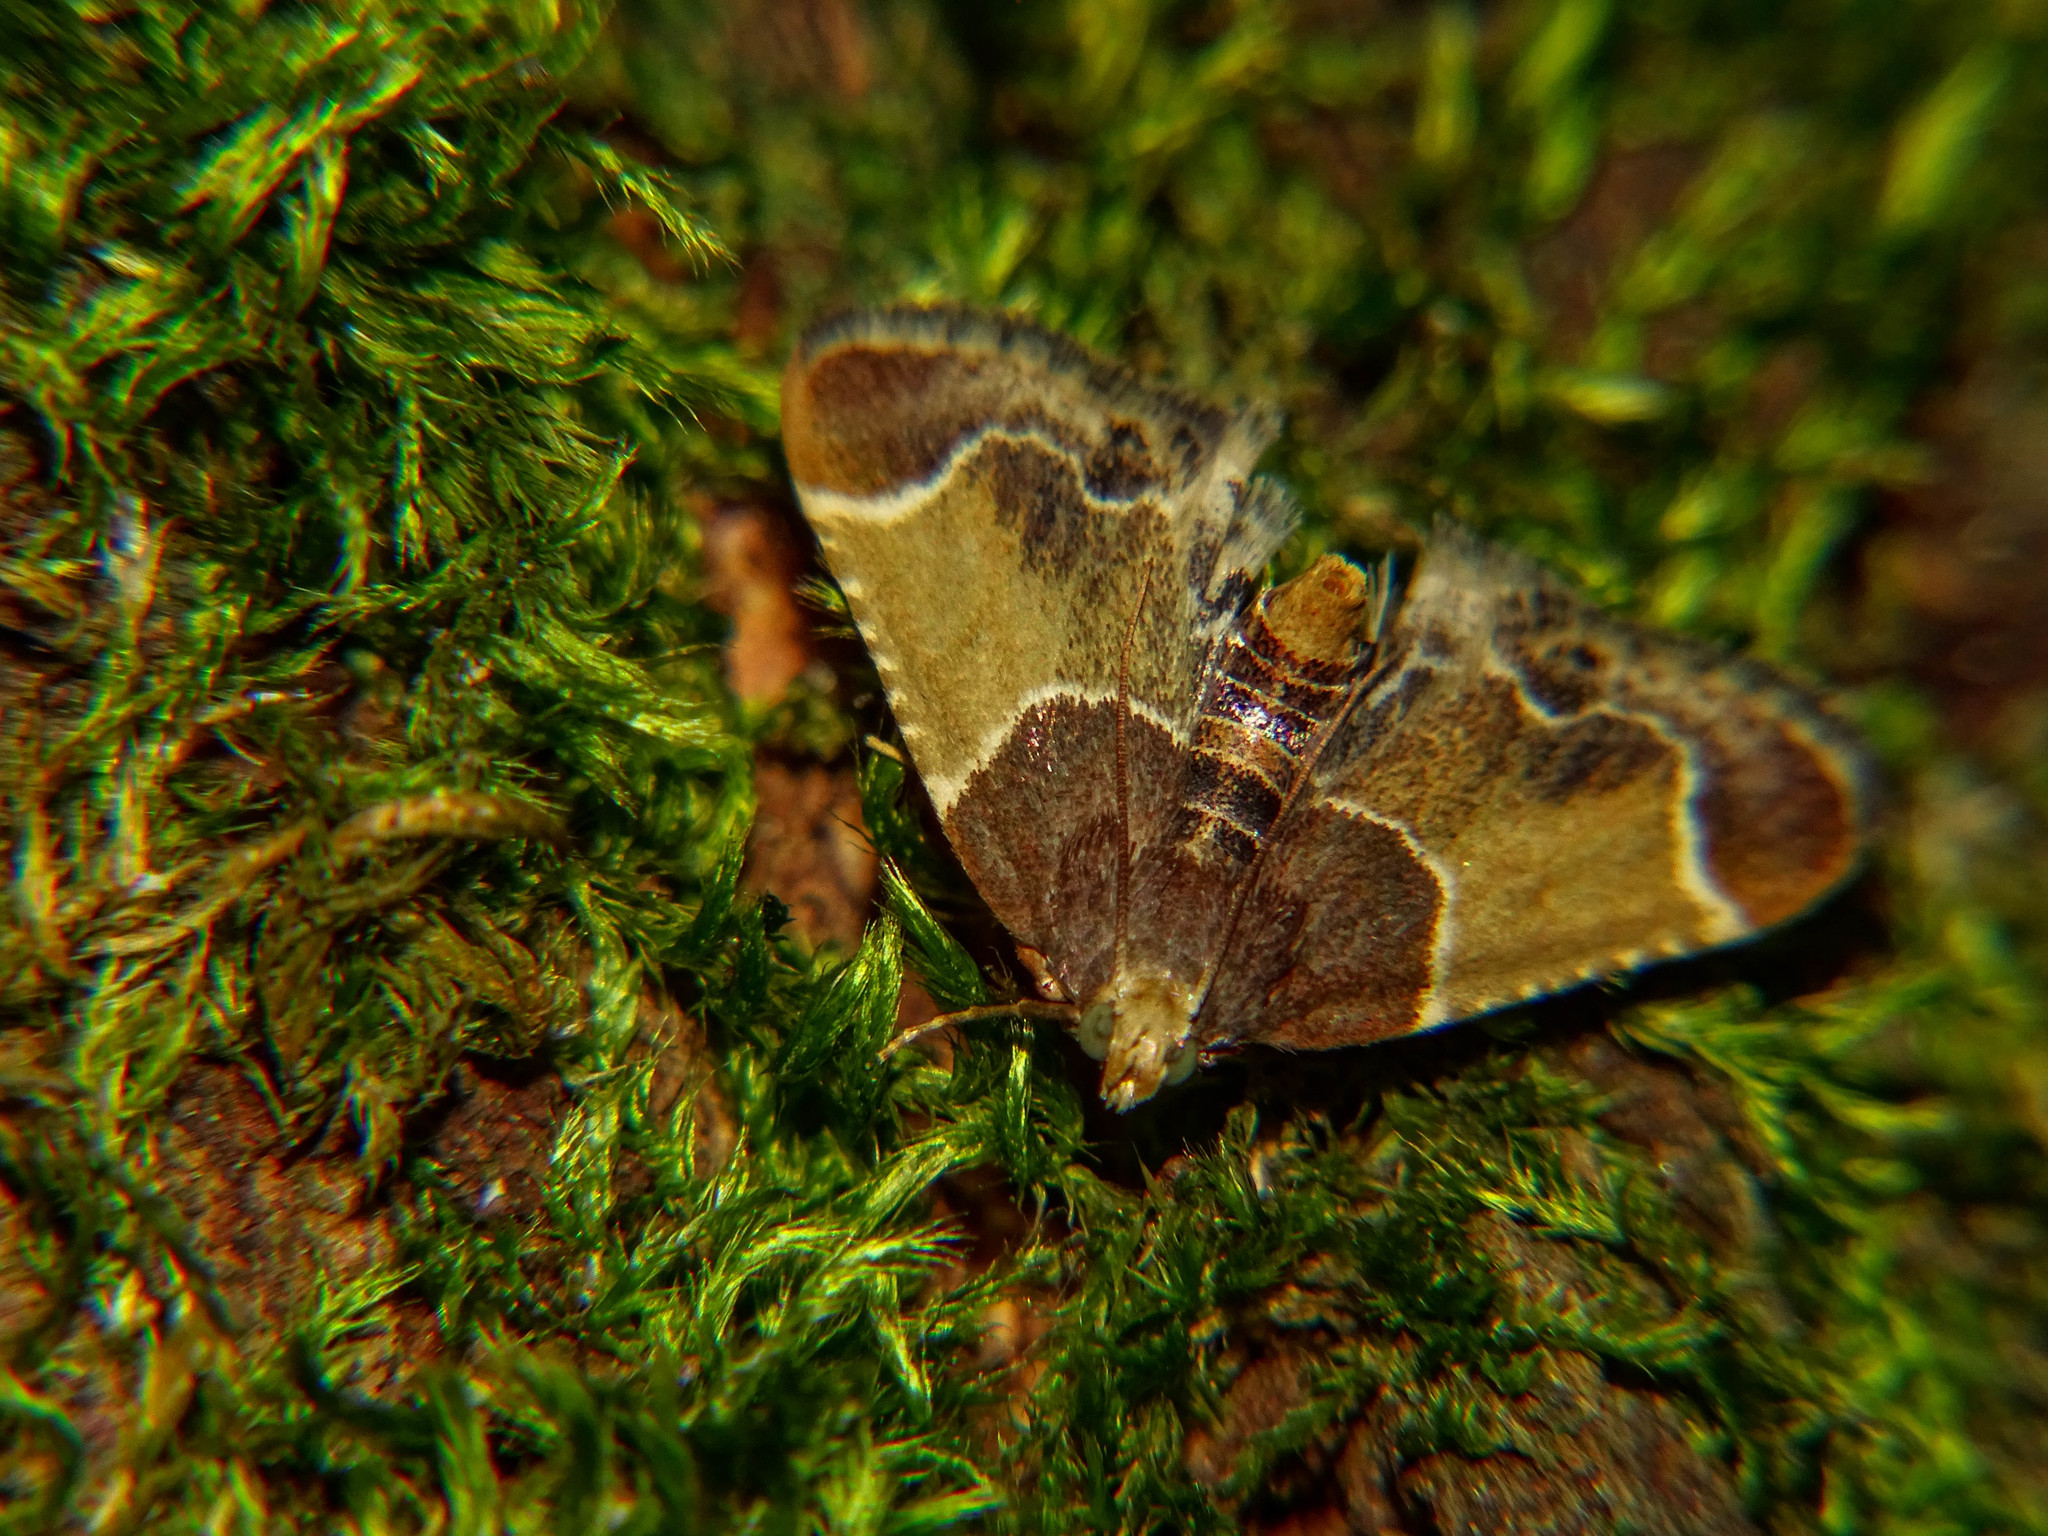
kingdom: Animalia
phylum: Arthropoda
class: Insecta
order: Lepidoptera
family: Pyralidae
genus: Pyralis
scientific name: Pyralis farinalis
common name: Meal moth
